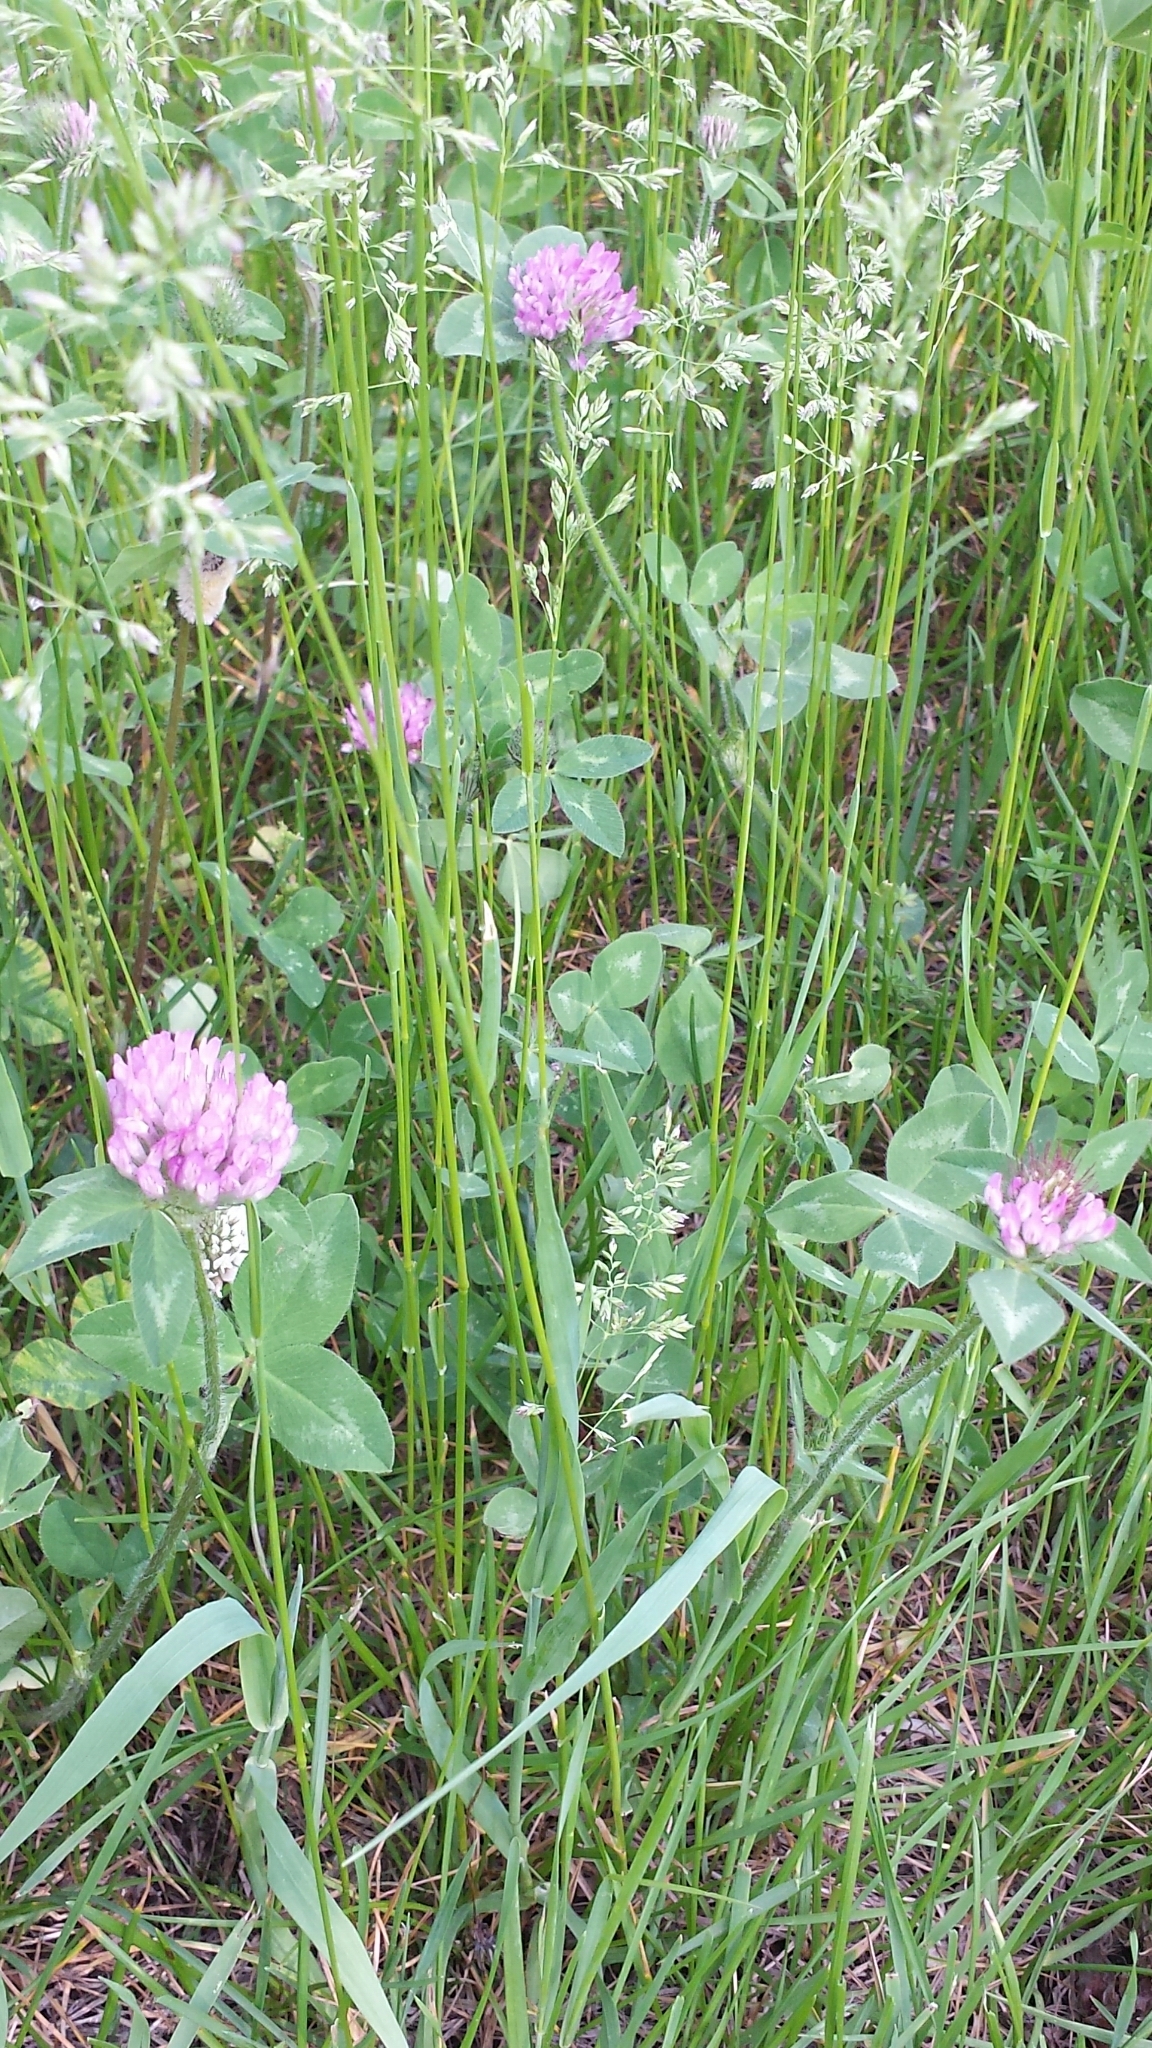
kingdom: Plantae
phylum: Tracheophyta
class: Magnoliopsida
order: Fabales
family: Fabaceae
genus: Trifolium
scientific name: Trifolium pratense
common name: Red clover
